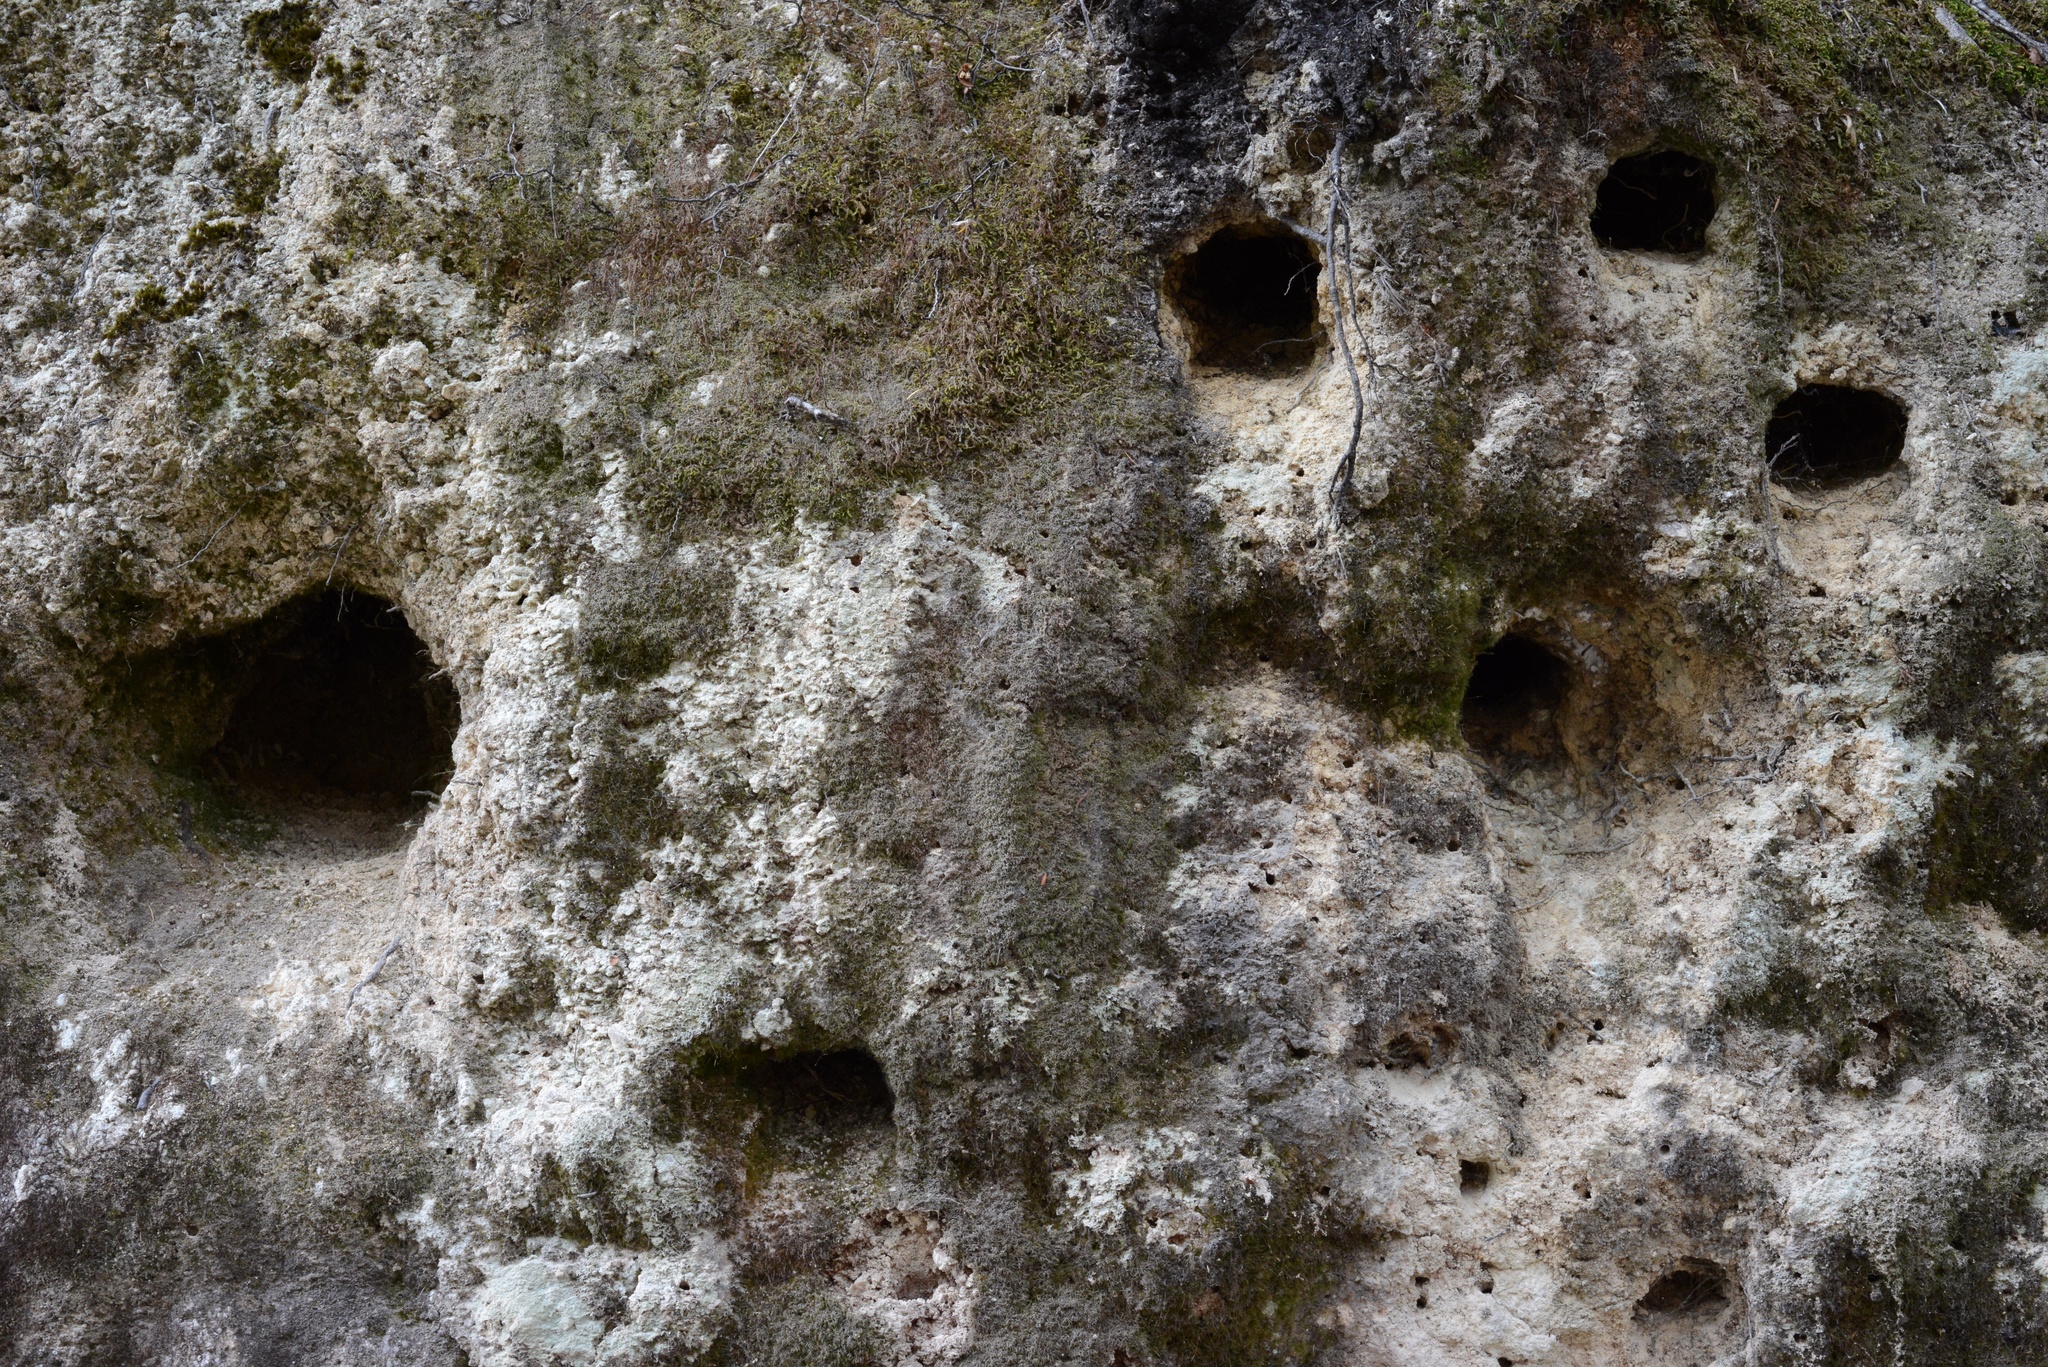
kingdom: Animalia
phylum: Chordata
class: Aves
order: Coraciiformes
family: Alcedinidae
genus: Todiramphus
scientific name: Todiramphus sanctus
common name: Sacred kingfisher
